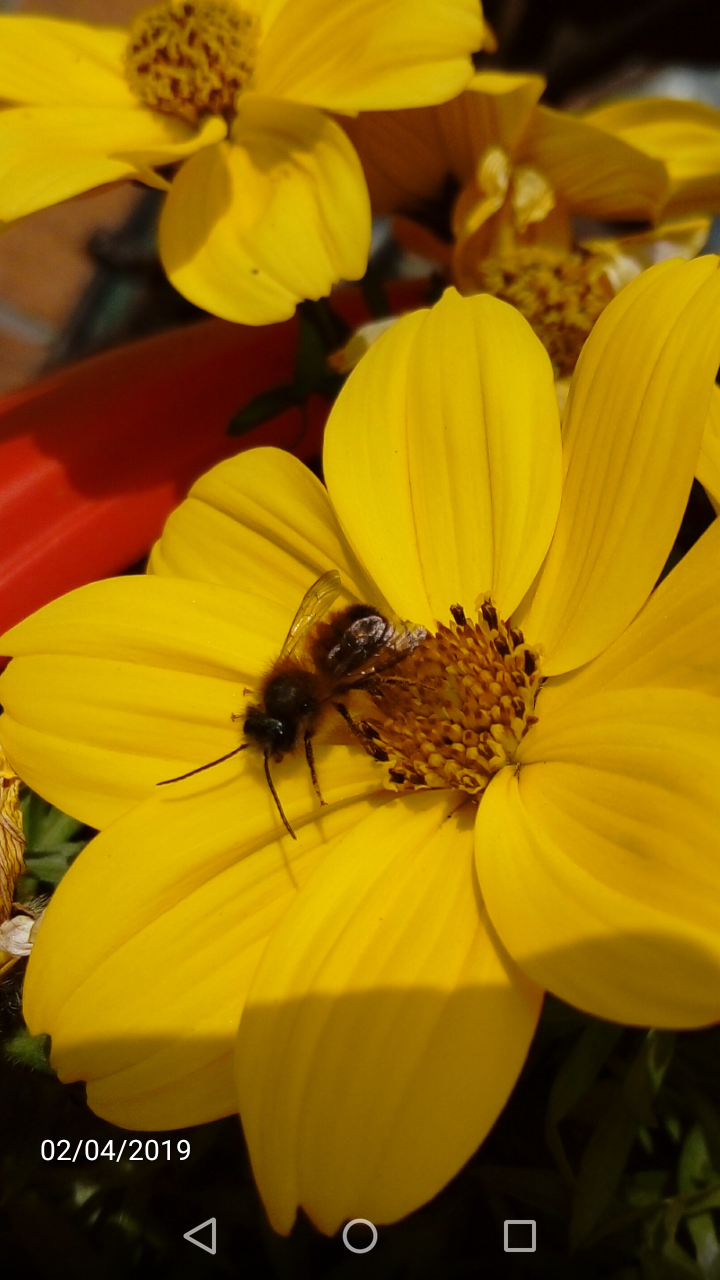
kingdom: Animalia
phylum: Arthropoda
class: Insecta
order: Hymenoptera
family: Megachilidae
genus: Osmia
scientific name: Osmia bicornis
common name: Red mason bee
